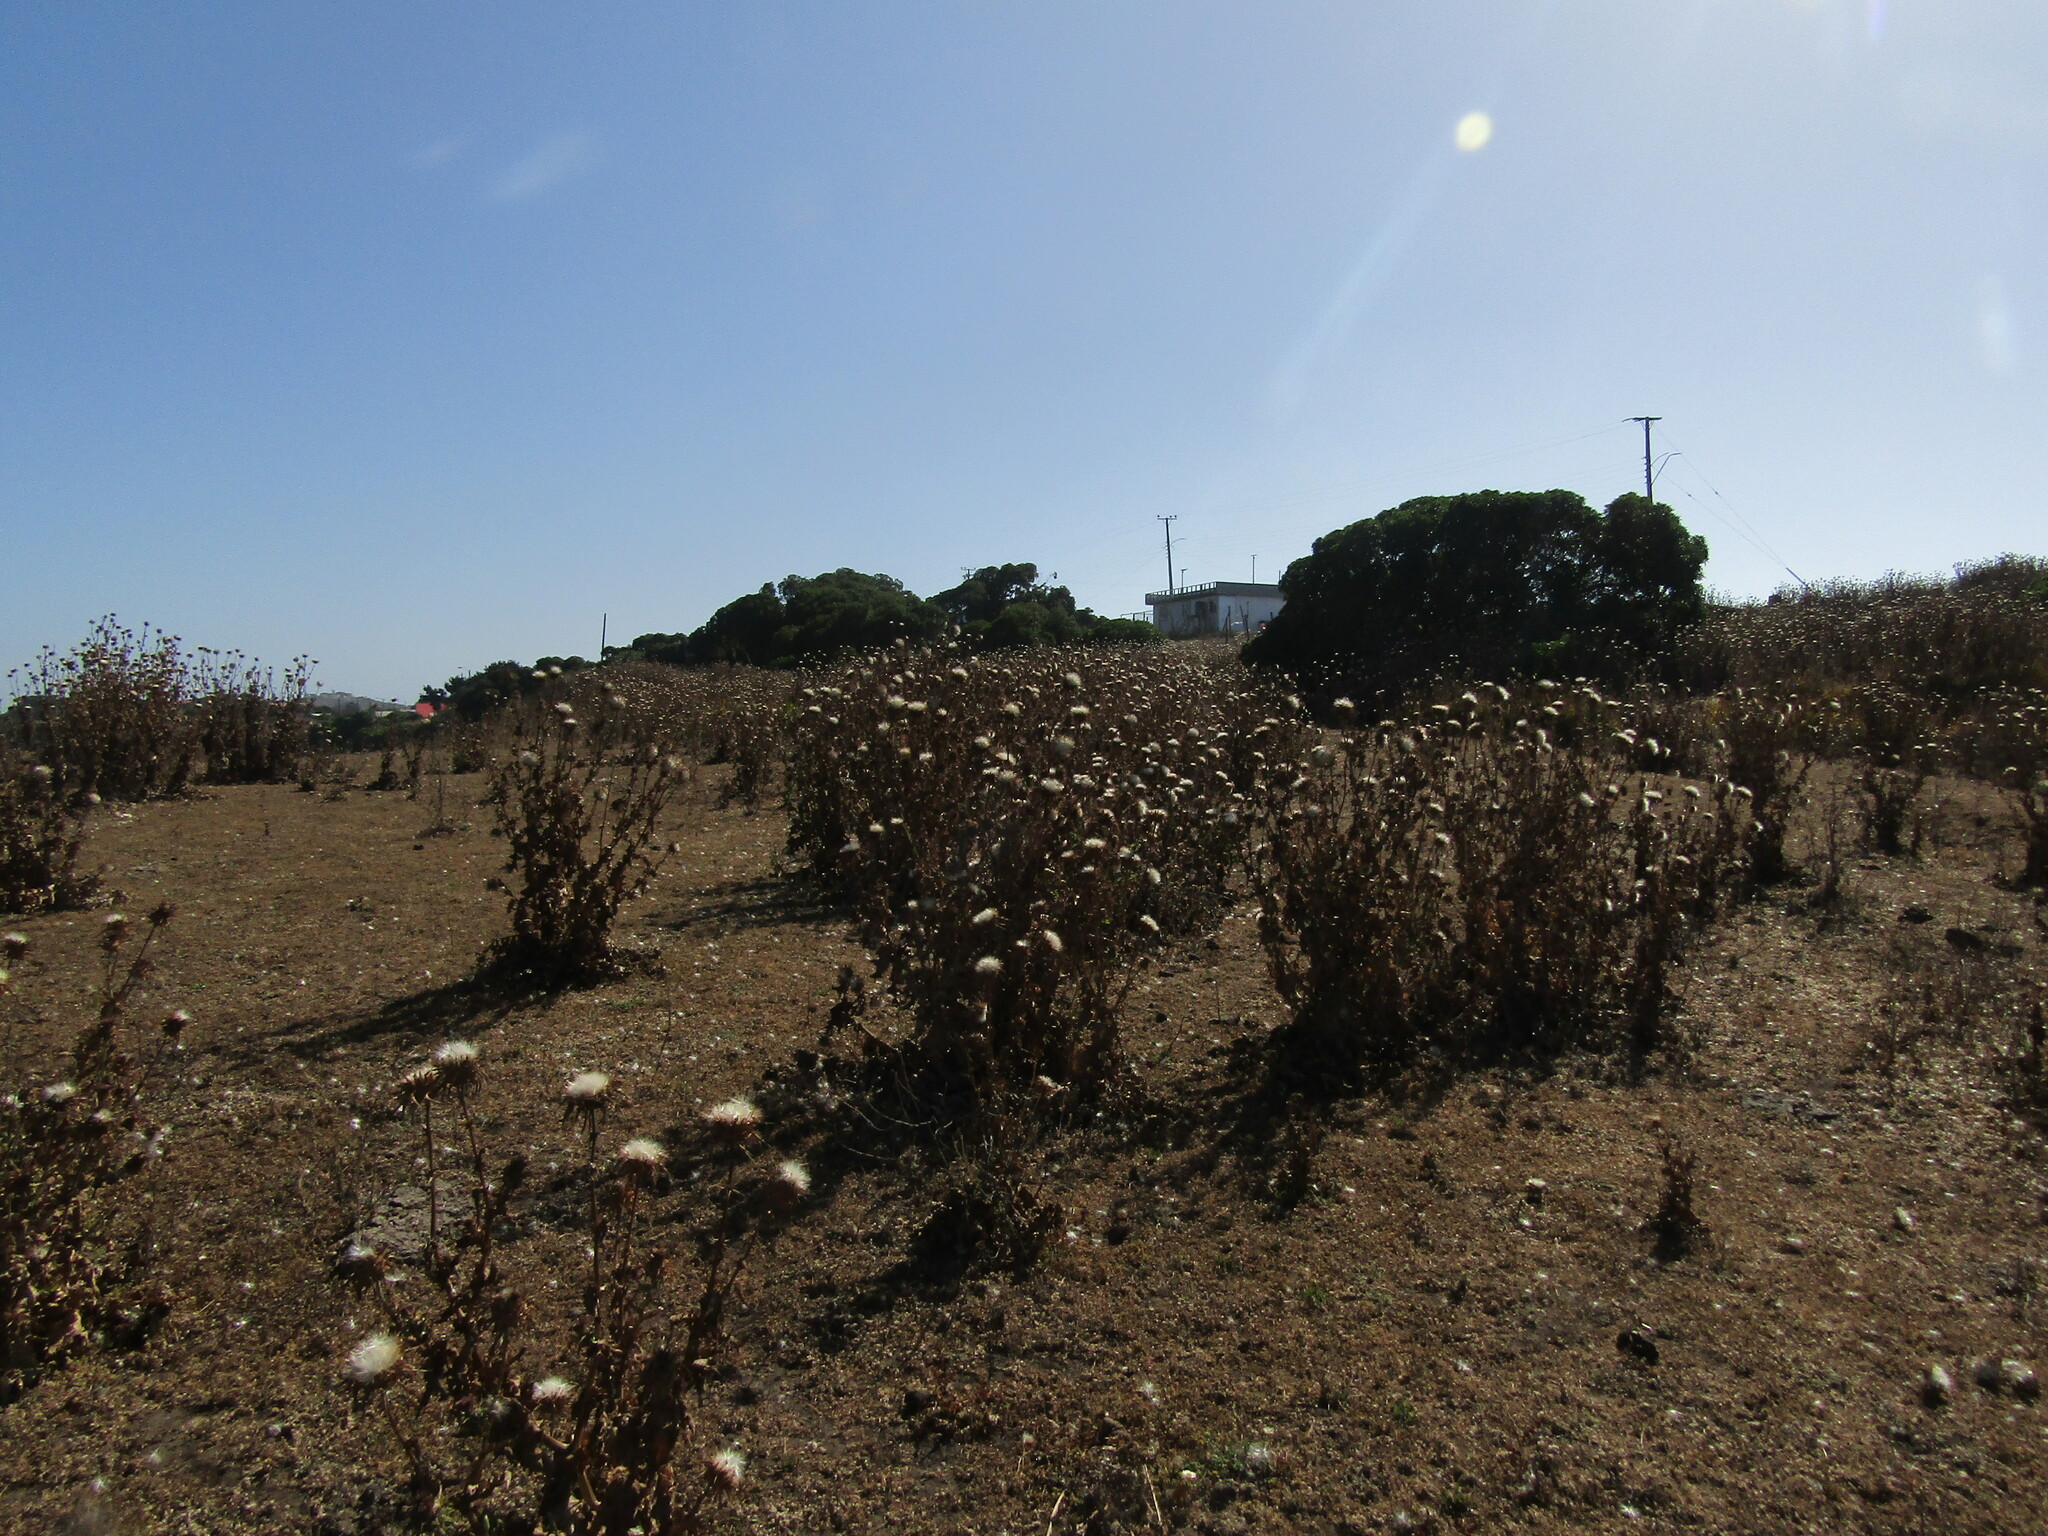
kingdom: Plantae
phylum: Tracheophyta
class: Magnoliopsida
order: Asterales
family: Asteraceae
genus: Silybum
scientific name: Silybum marianum
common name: Milk thistle
